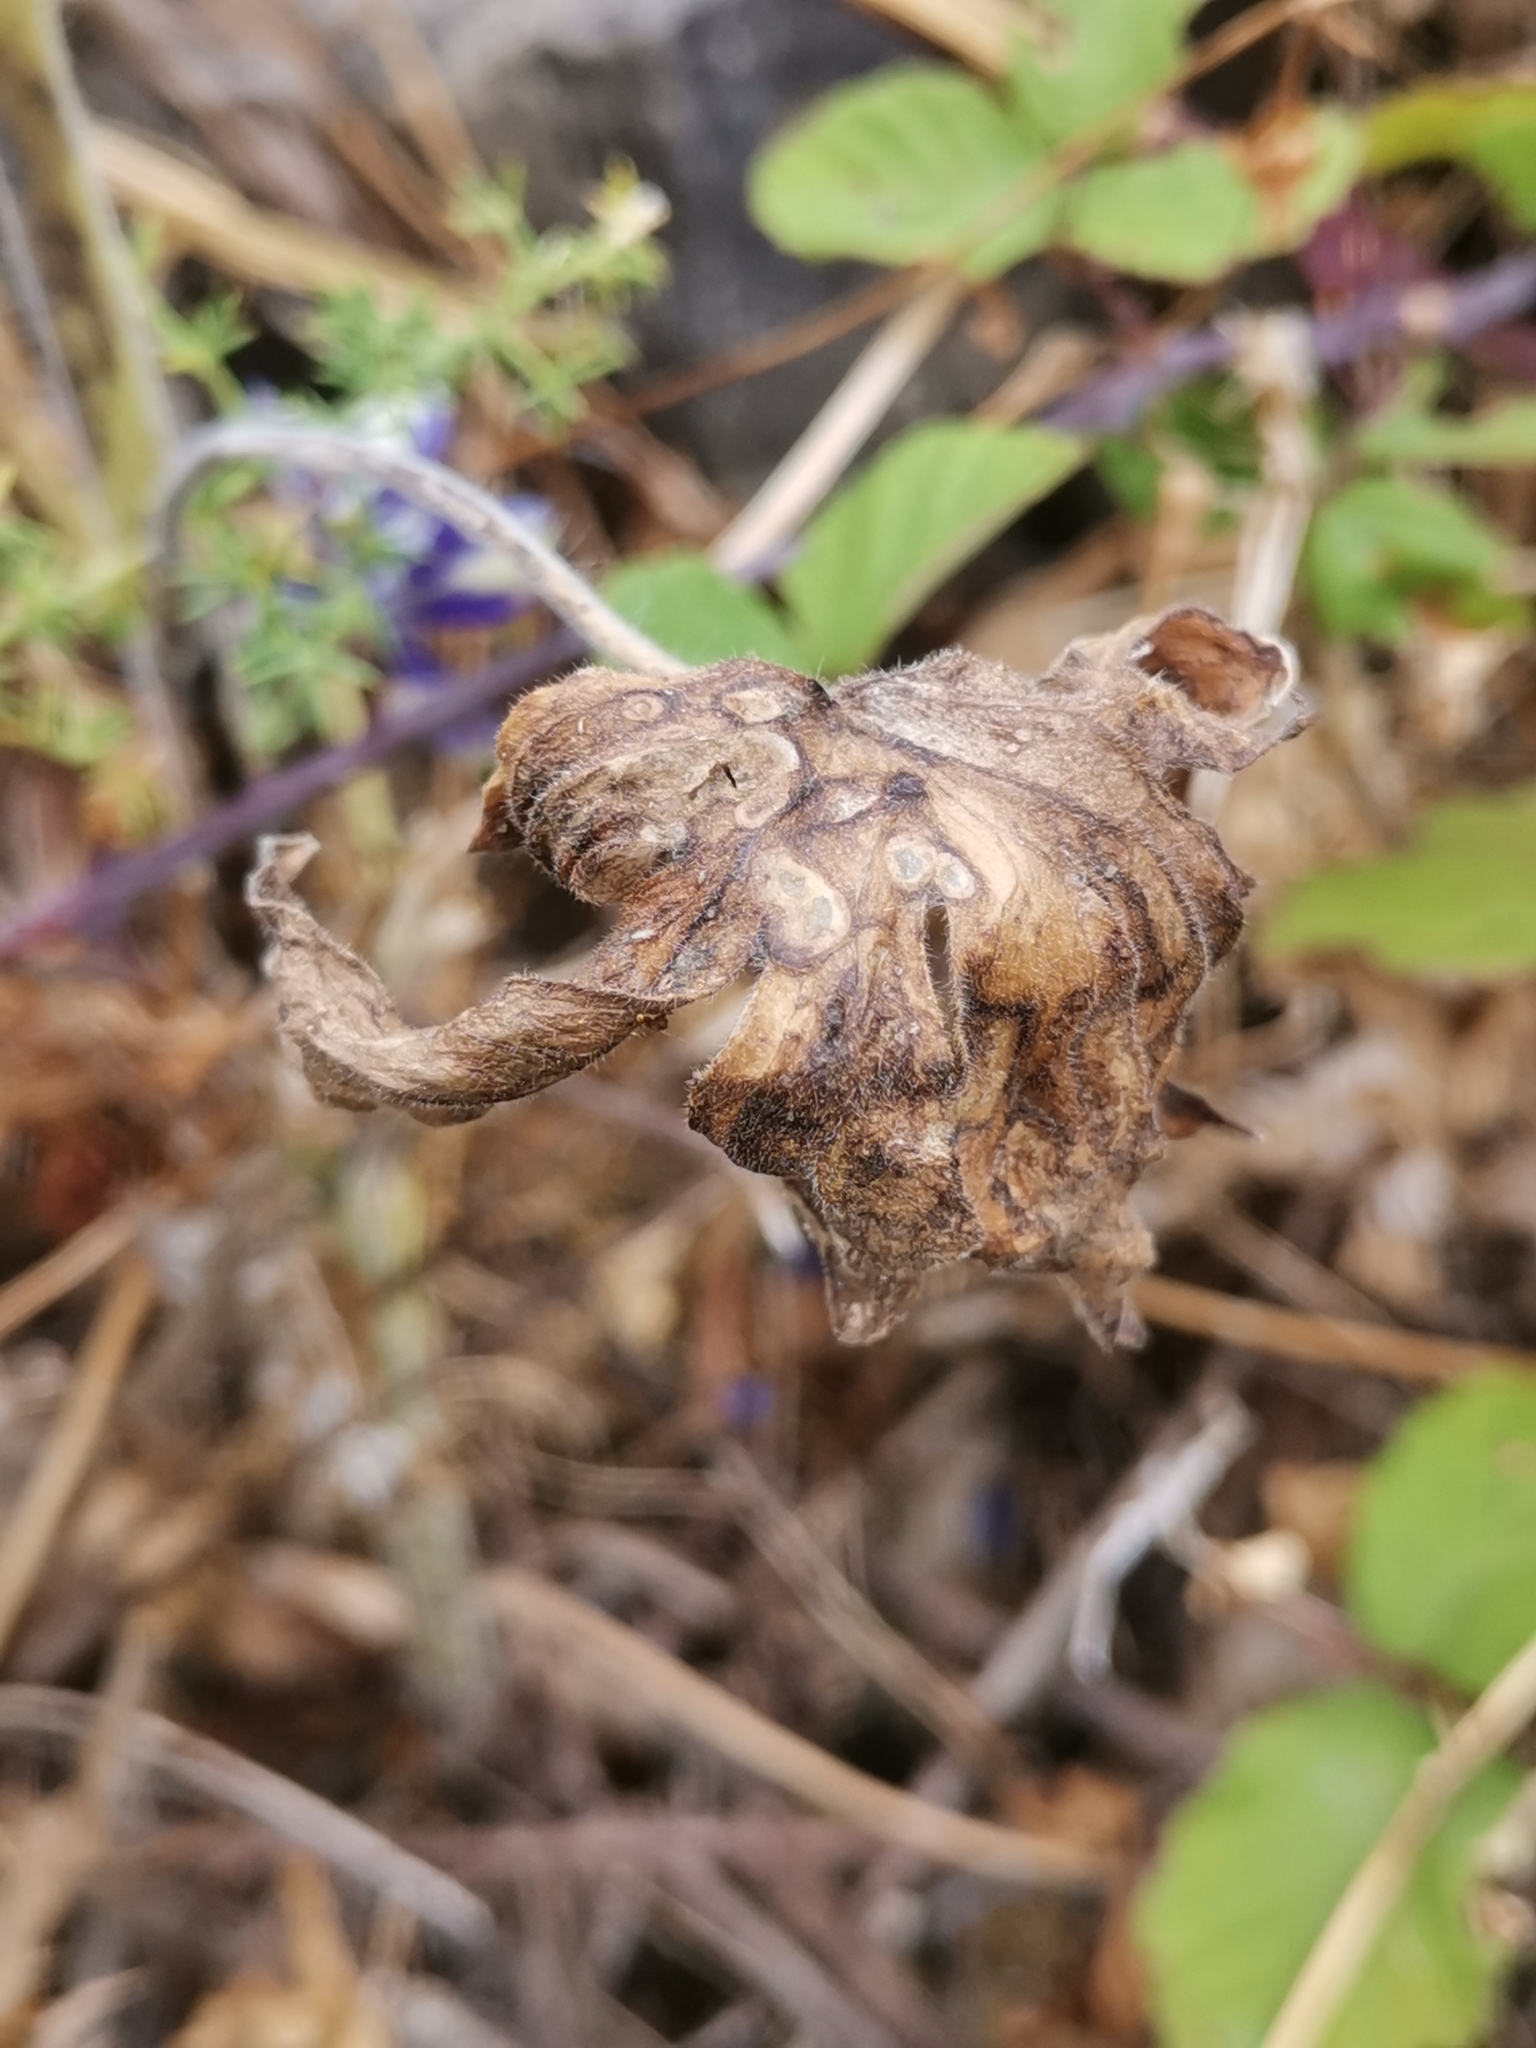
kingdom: Plantae
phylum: Tracheophyta
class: Magnoliopsida
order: Ranunculales
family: Ranunculaceae
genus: Staphisagria
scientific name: Staphisagria macrosperma
